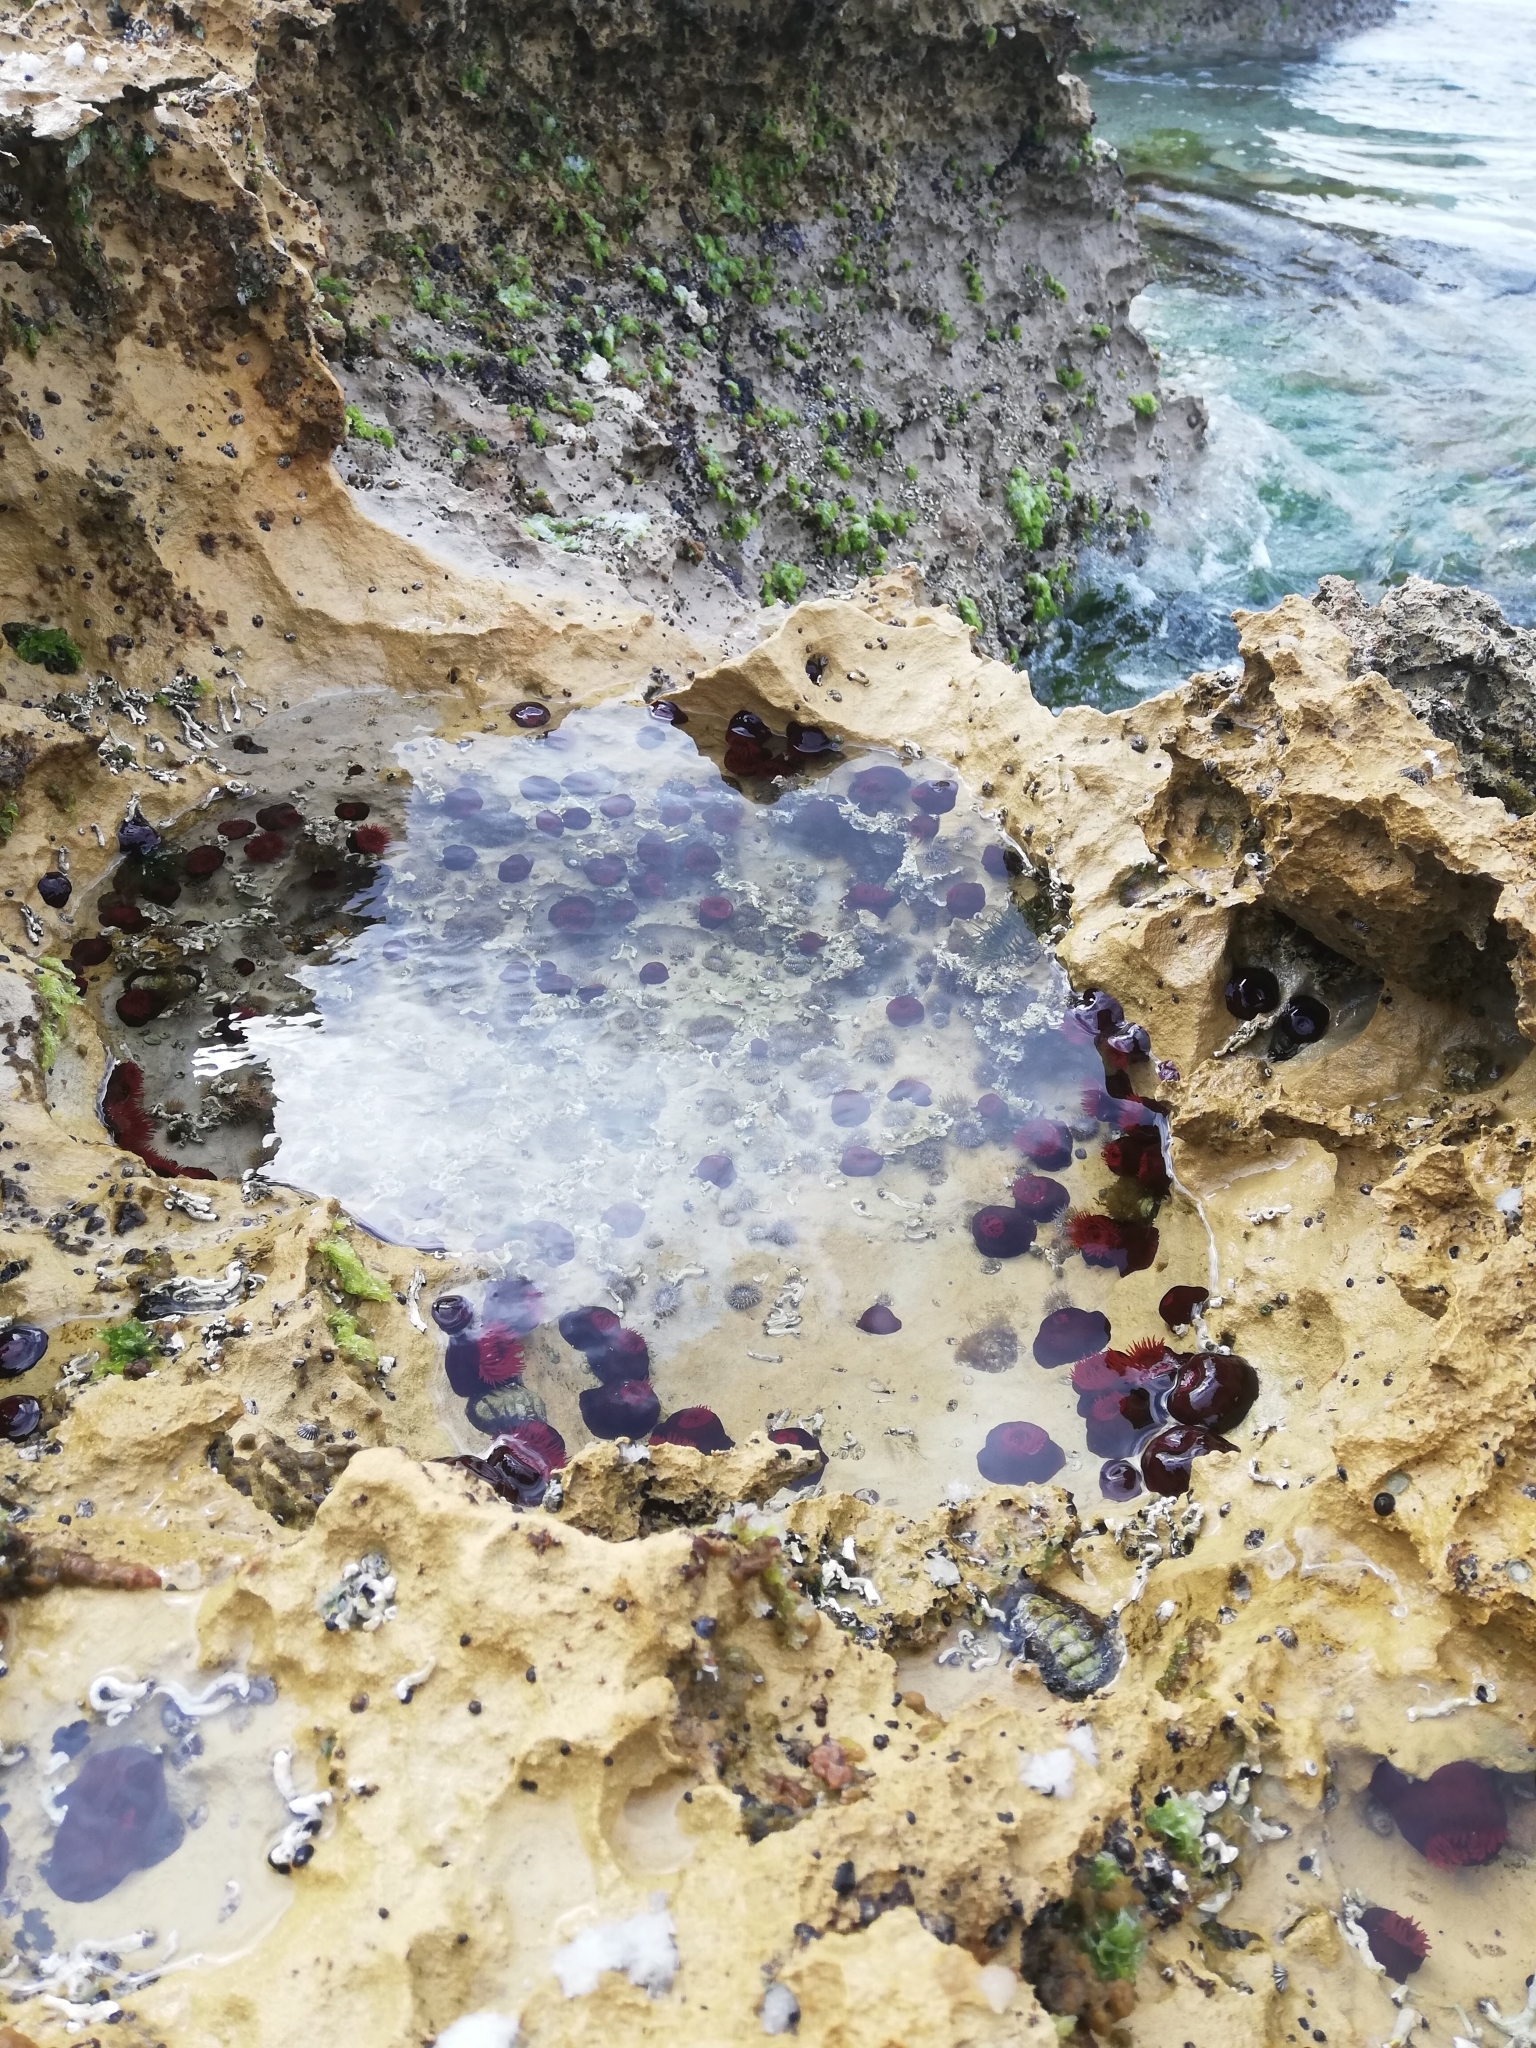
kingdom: Animalia
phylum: Cnidaria
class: Anthozoa
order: Actiniaria
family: Actiniidae
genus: Actinia
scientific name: Actinia tenebrosa
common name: Waratah anemone
